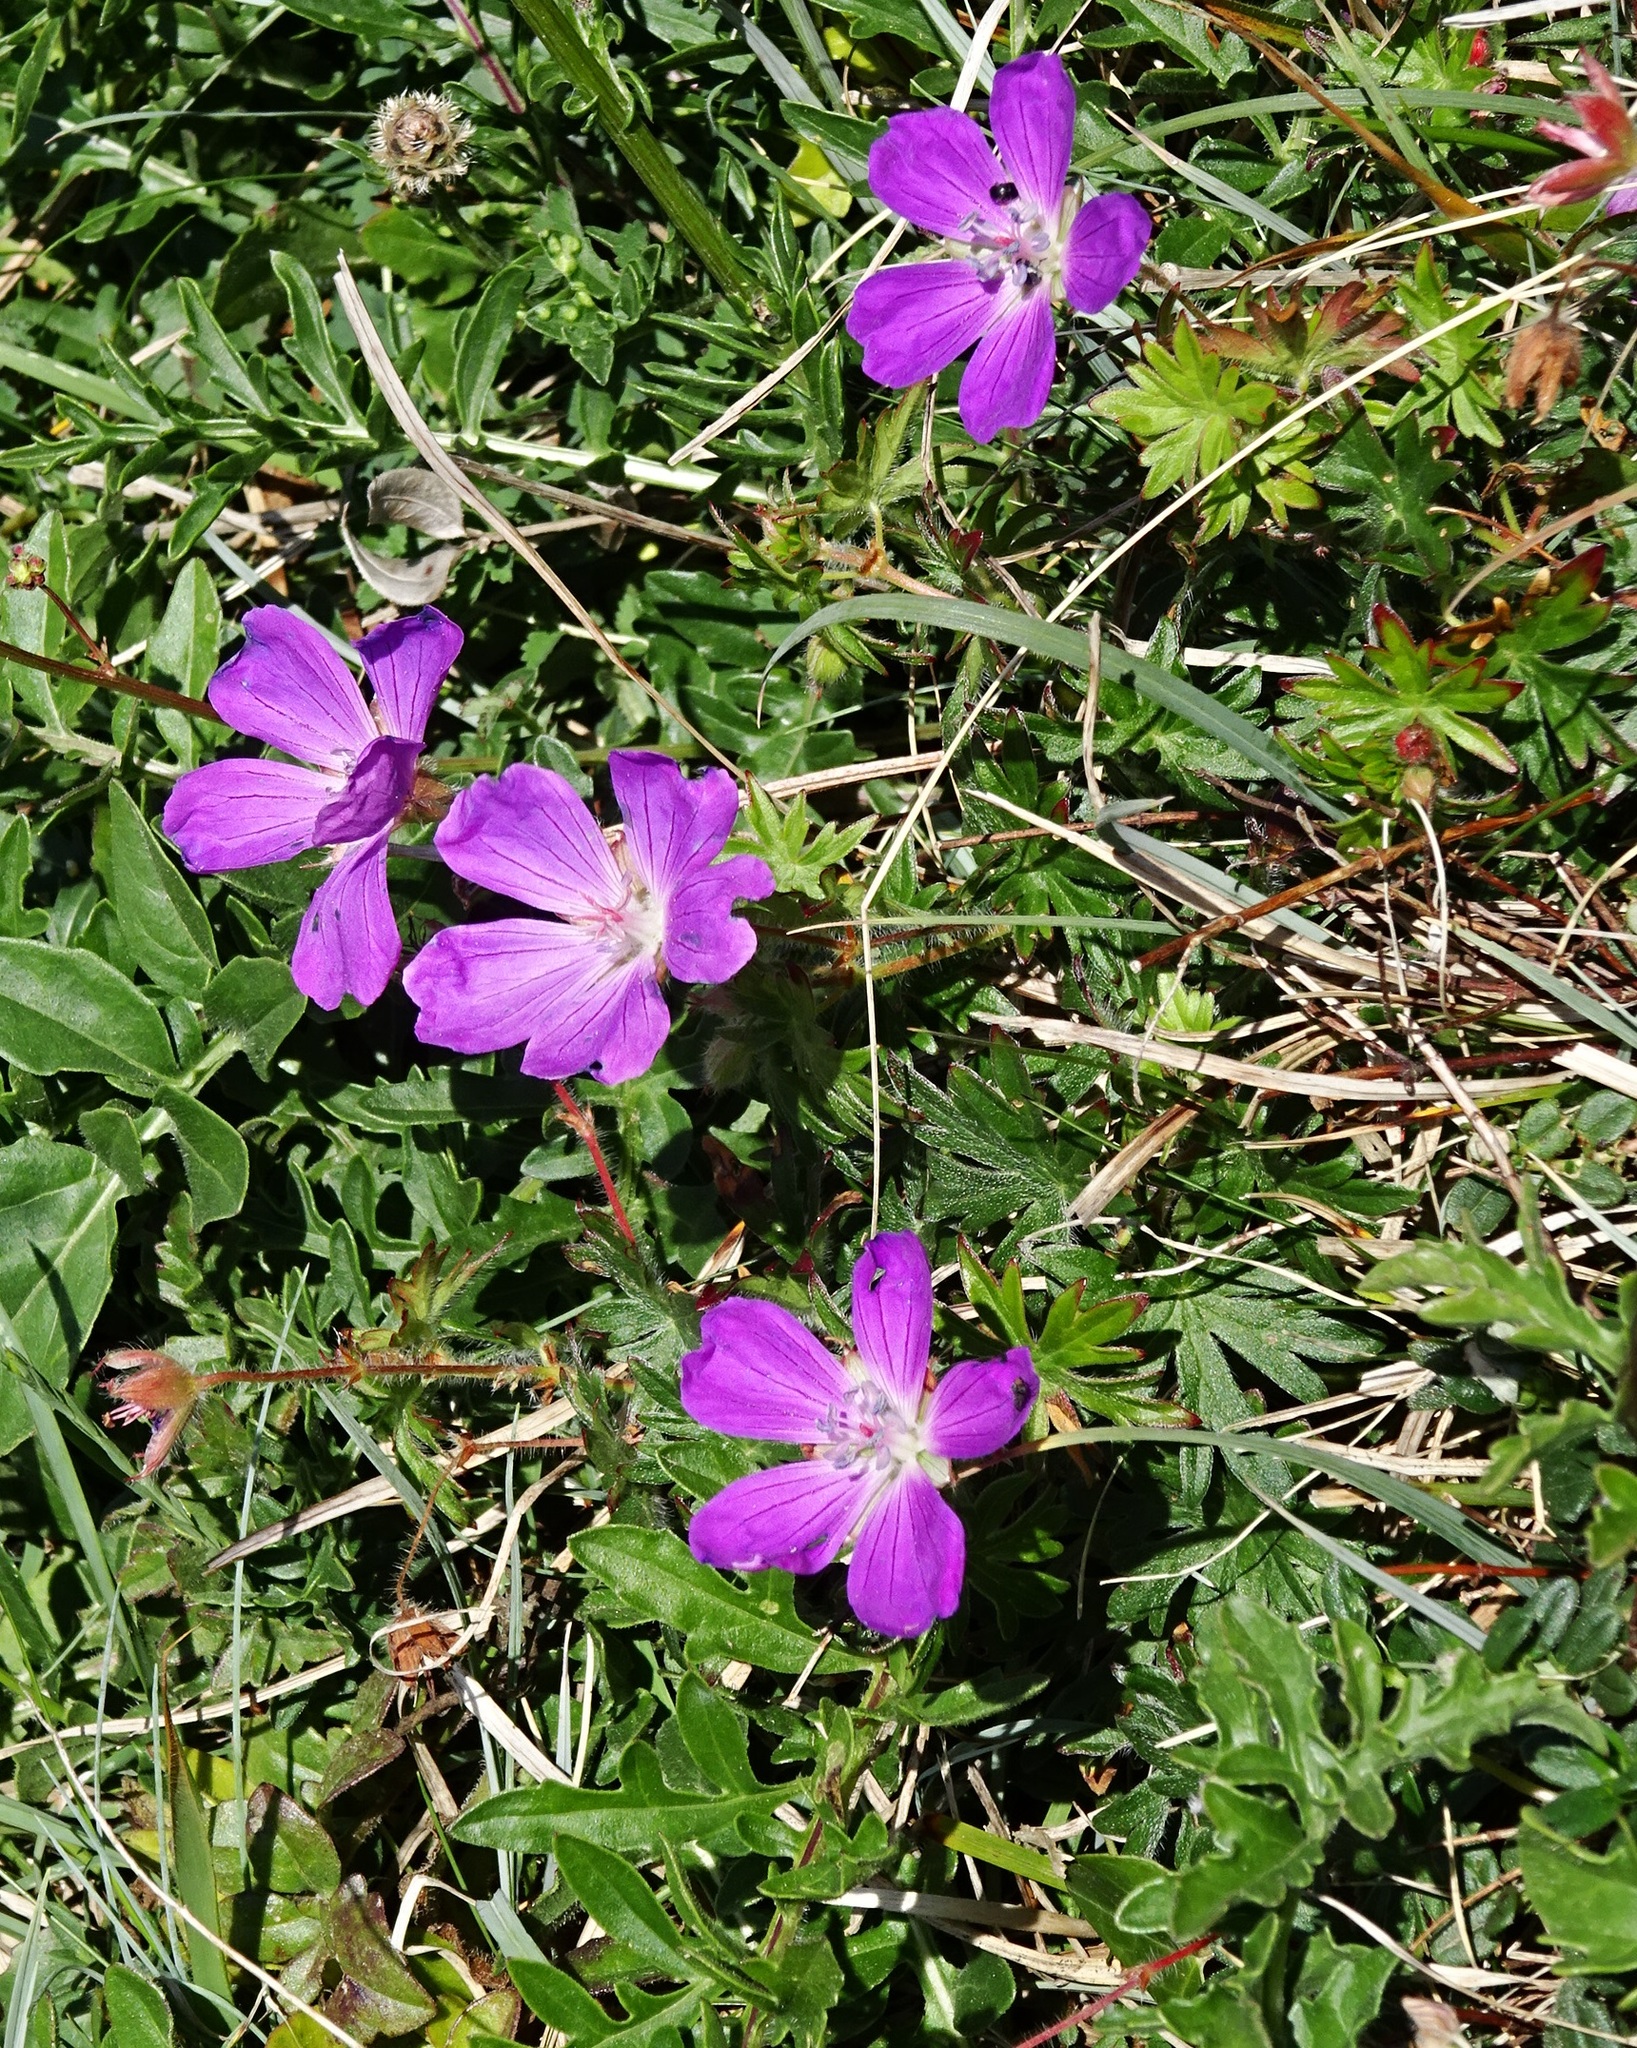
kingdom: Plantae
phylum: Tracheophyta
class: Magnoliopsida
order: Geraniales
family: Geraniaceae
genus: Geranium
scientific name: Geranium sanguineum
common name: Bloody crane's-bill
